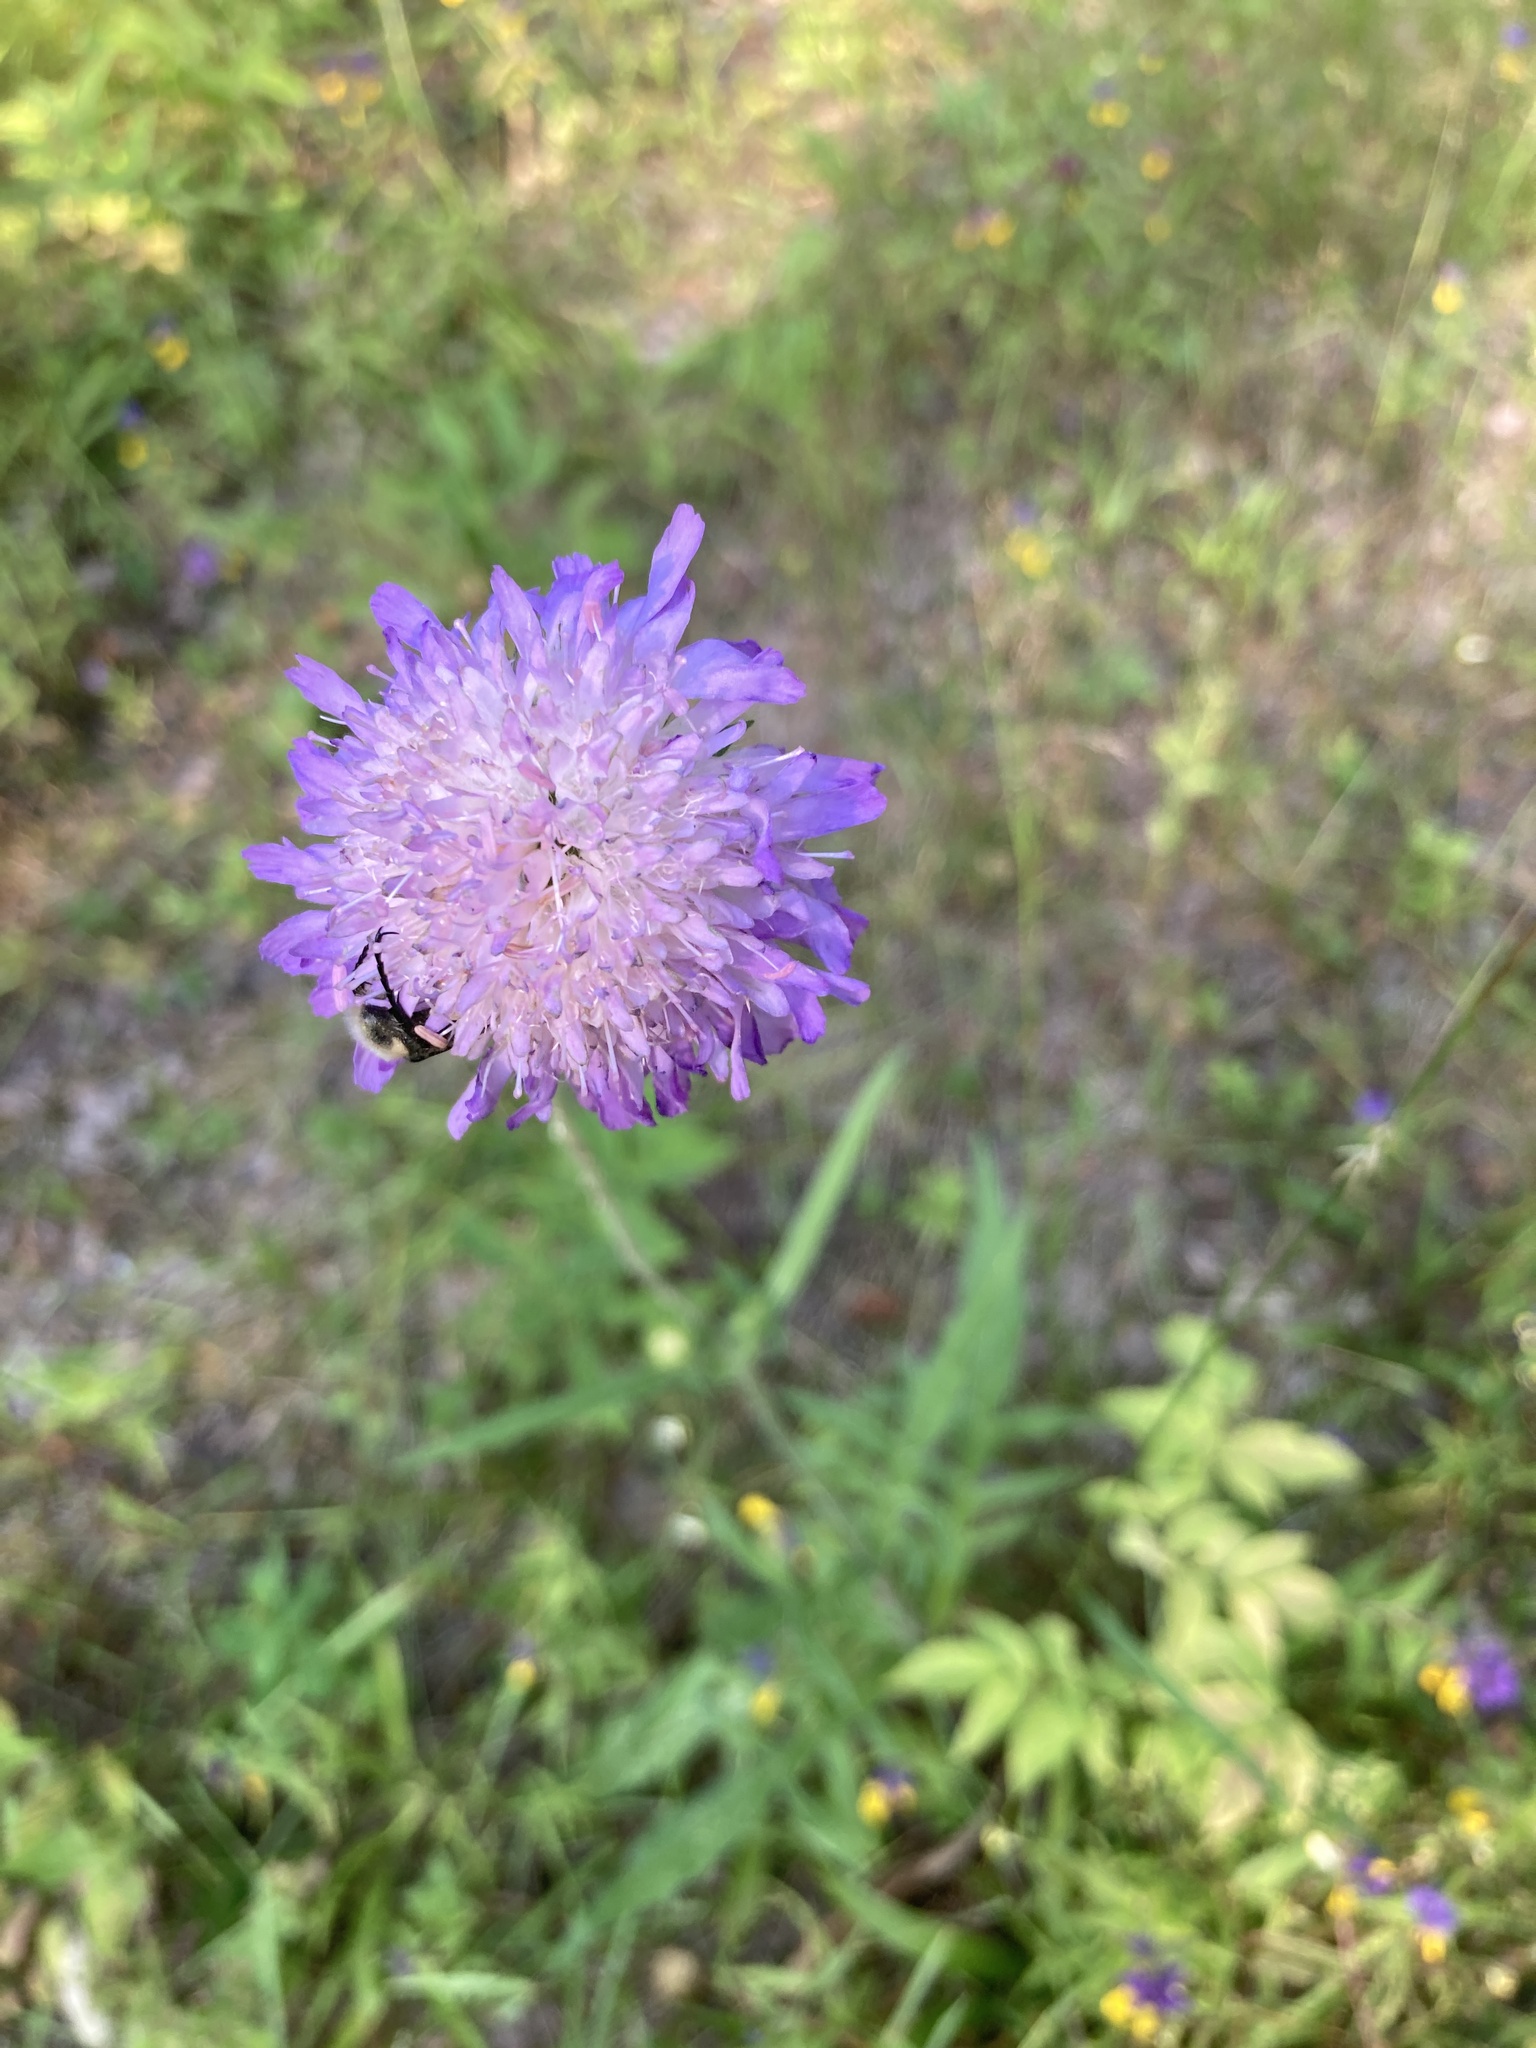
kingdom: Plantae
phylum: Tracheophyta
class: Magnoliopsida
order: Dipsacales
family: Caprifoliaceae
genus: Knautia
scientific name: Knautia arvensis
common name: Field scabiosa
